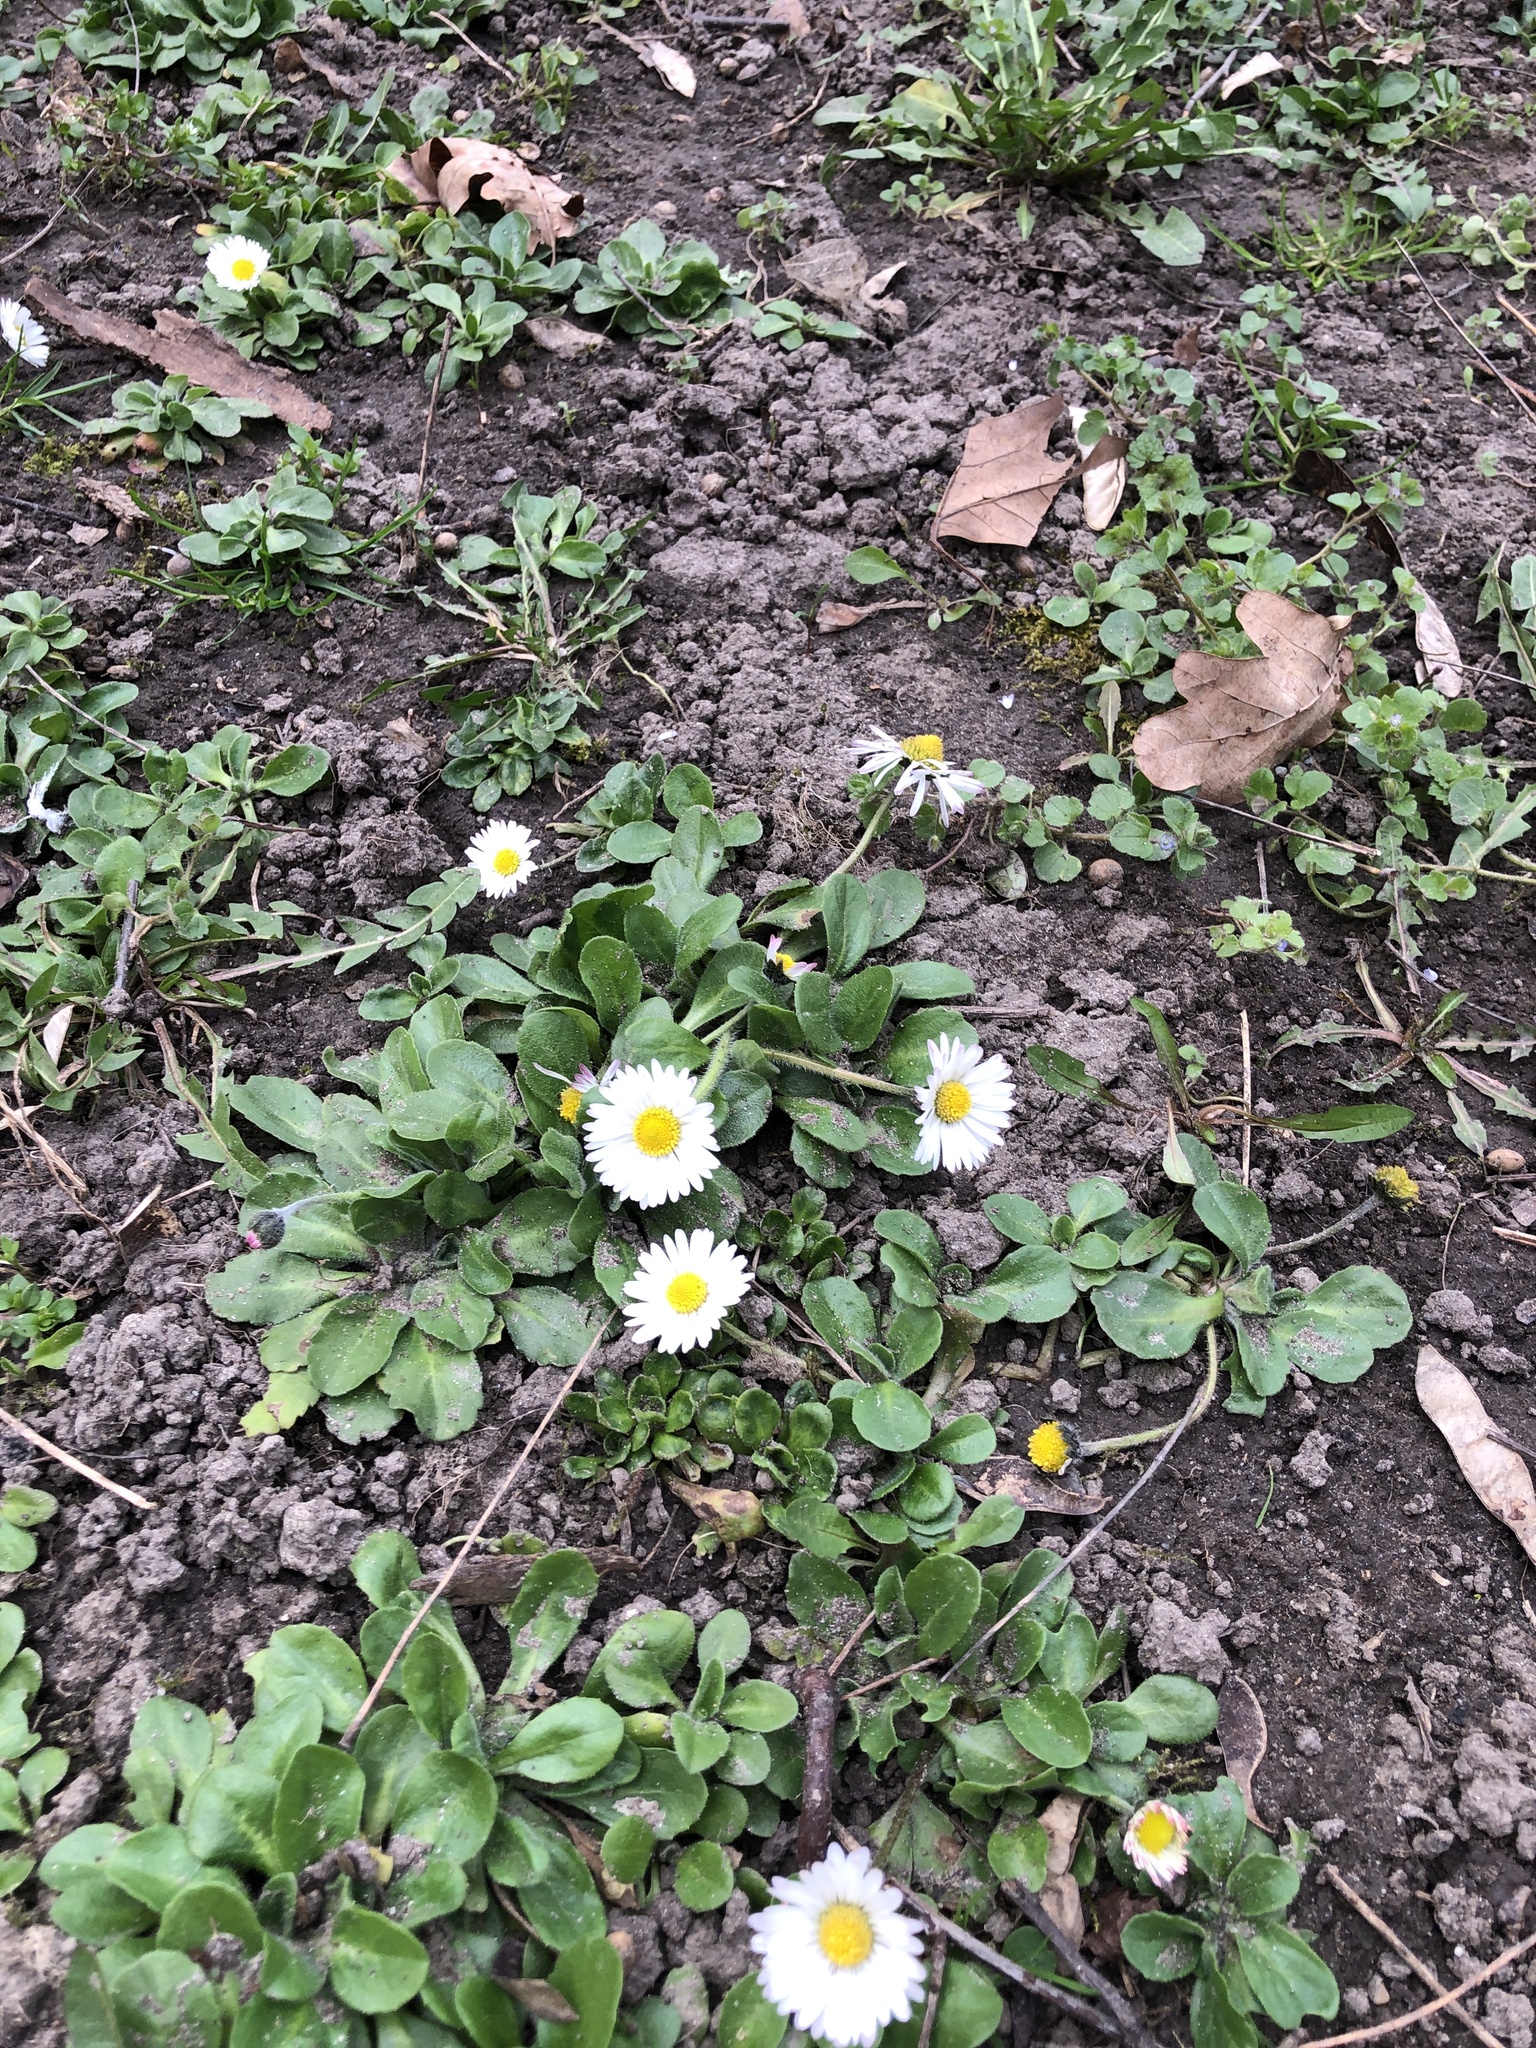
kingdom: Plantae
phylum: Tracheophyta
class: Magnoliopsida
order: Asterales
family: Asteraceae
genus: Bellis
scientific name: Bellis perennis
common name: Lawndaisy
